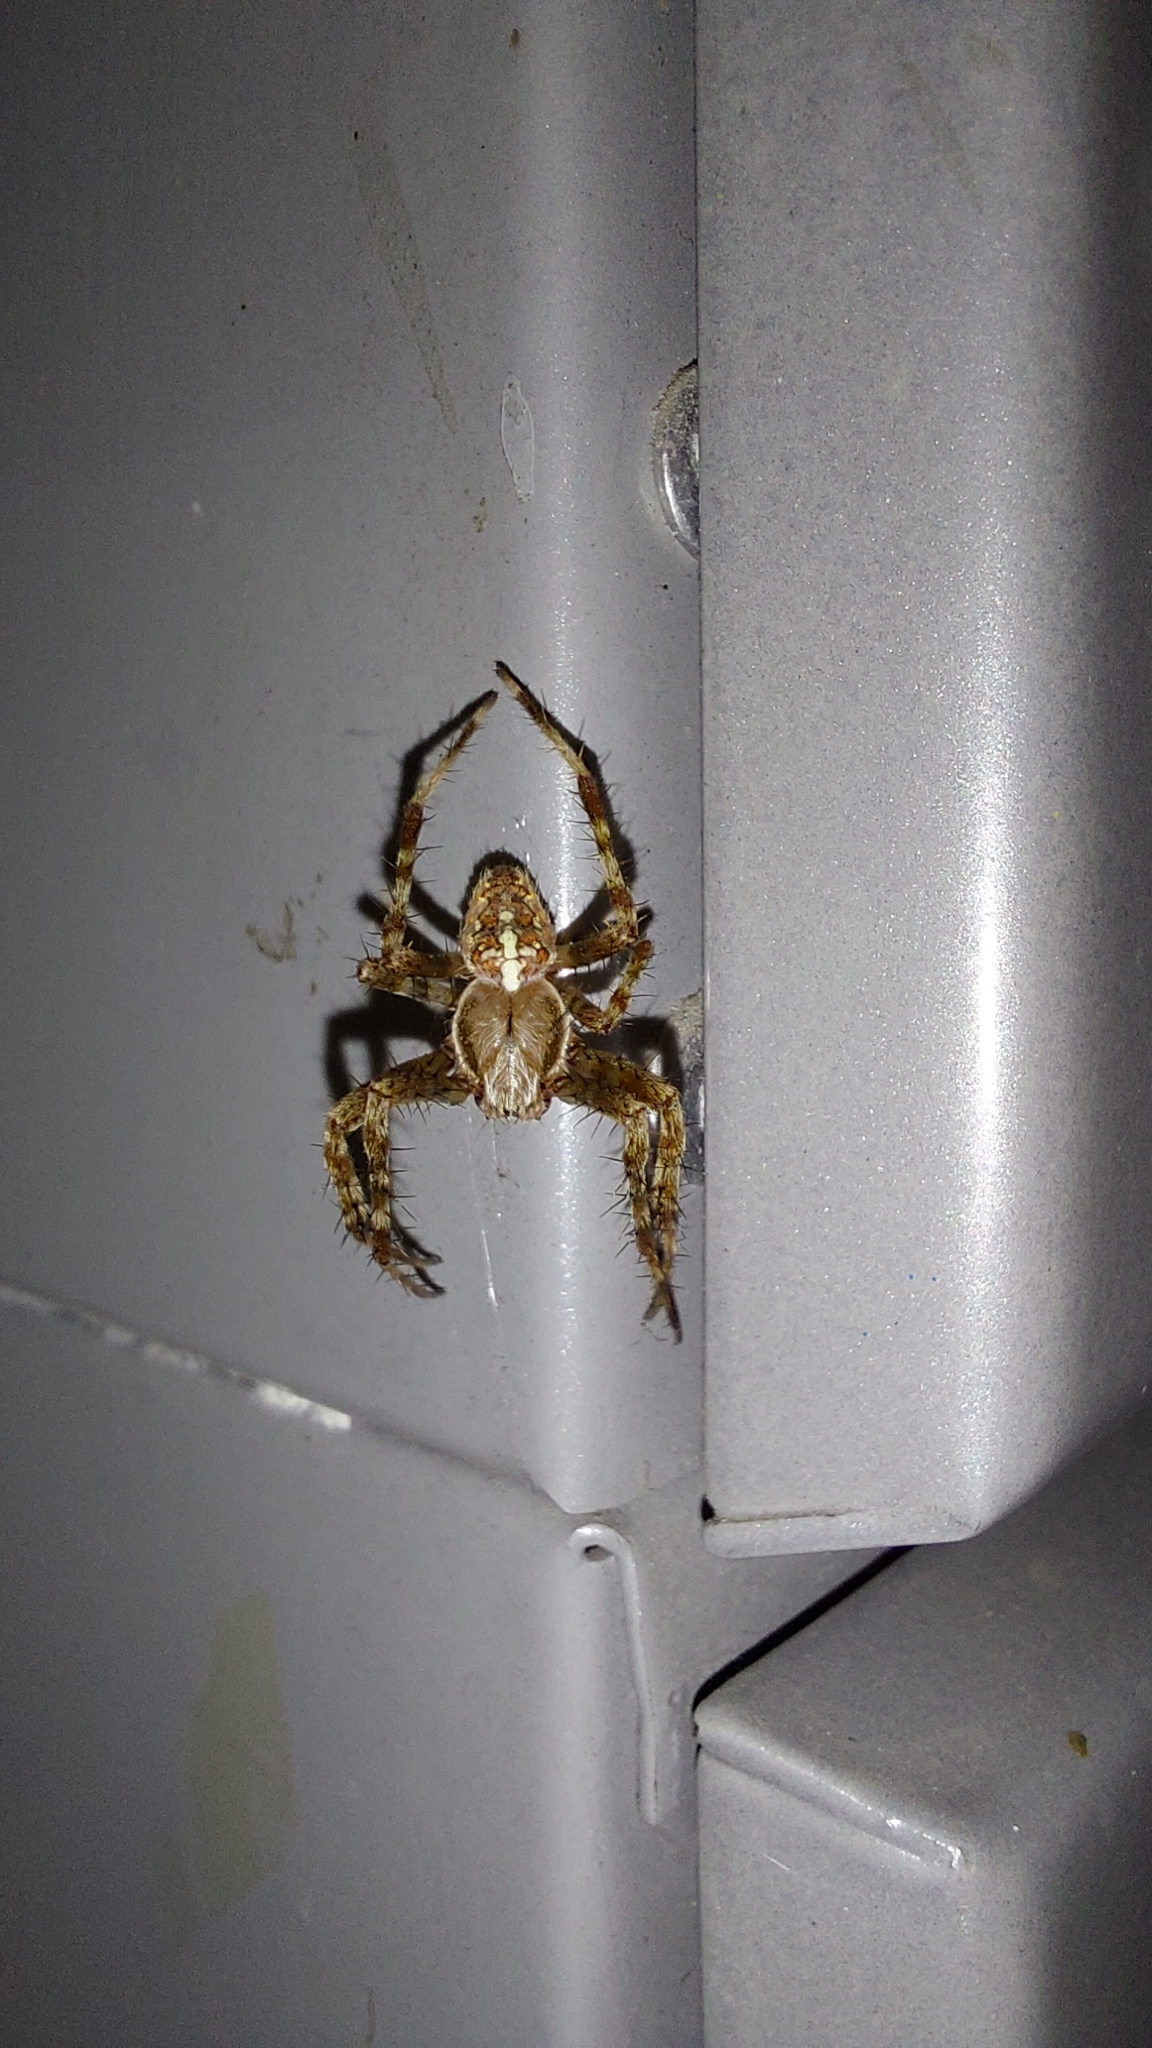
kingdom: Animalia
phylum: Arthropoda
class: Arachnida
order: Araneae
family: Araneidae
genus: Araneus
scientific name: Araneus diadematus
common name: Cross orbweaver
